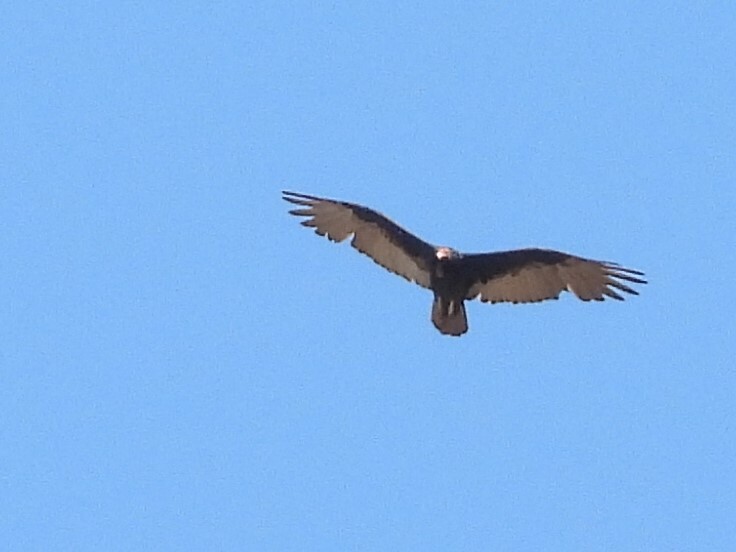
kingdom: Animalia
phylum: Chordata
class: Aves
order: Accipitriformes
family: Cathartidae
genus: Cathartes
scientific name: Cathartes aura
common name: Turkey vulture
